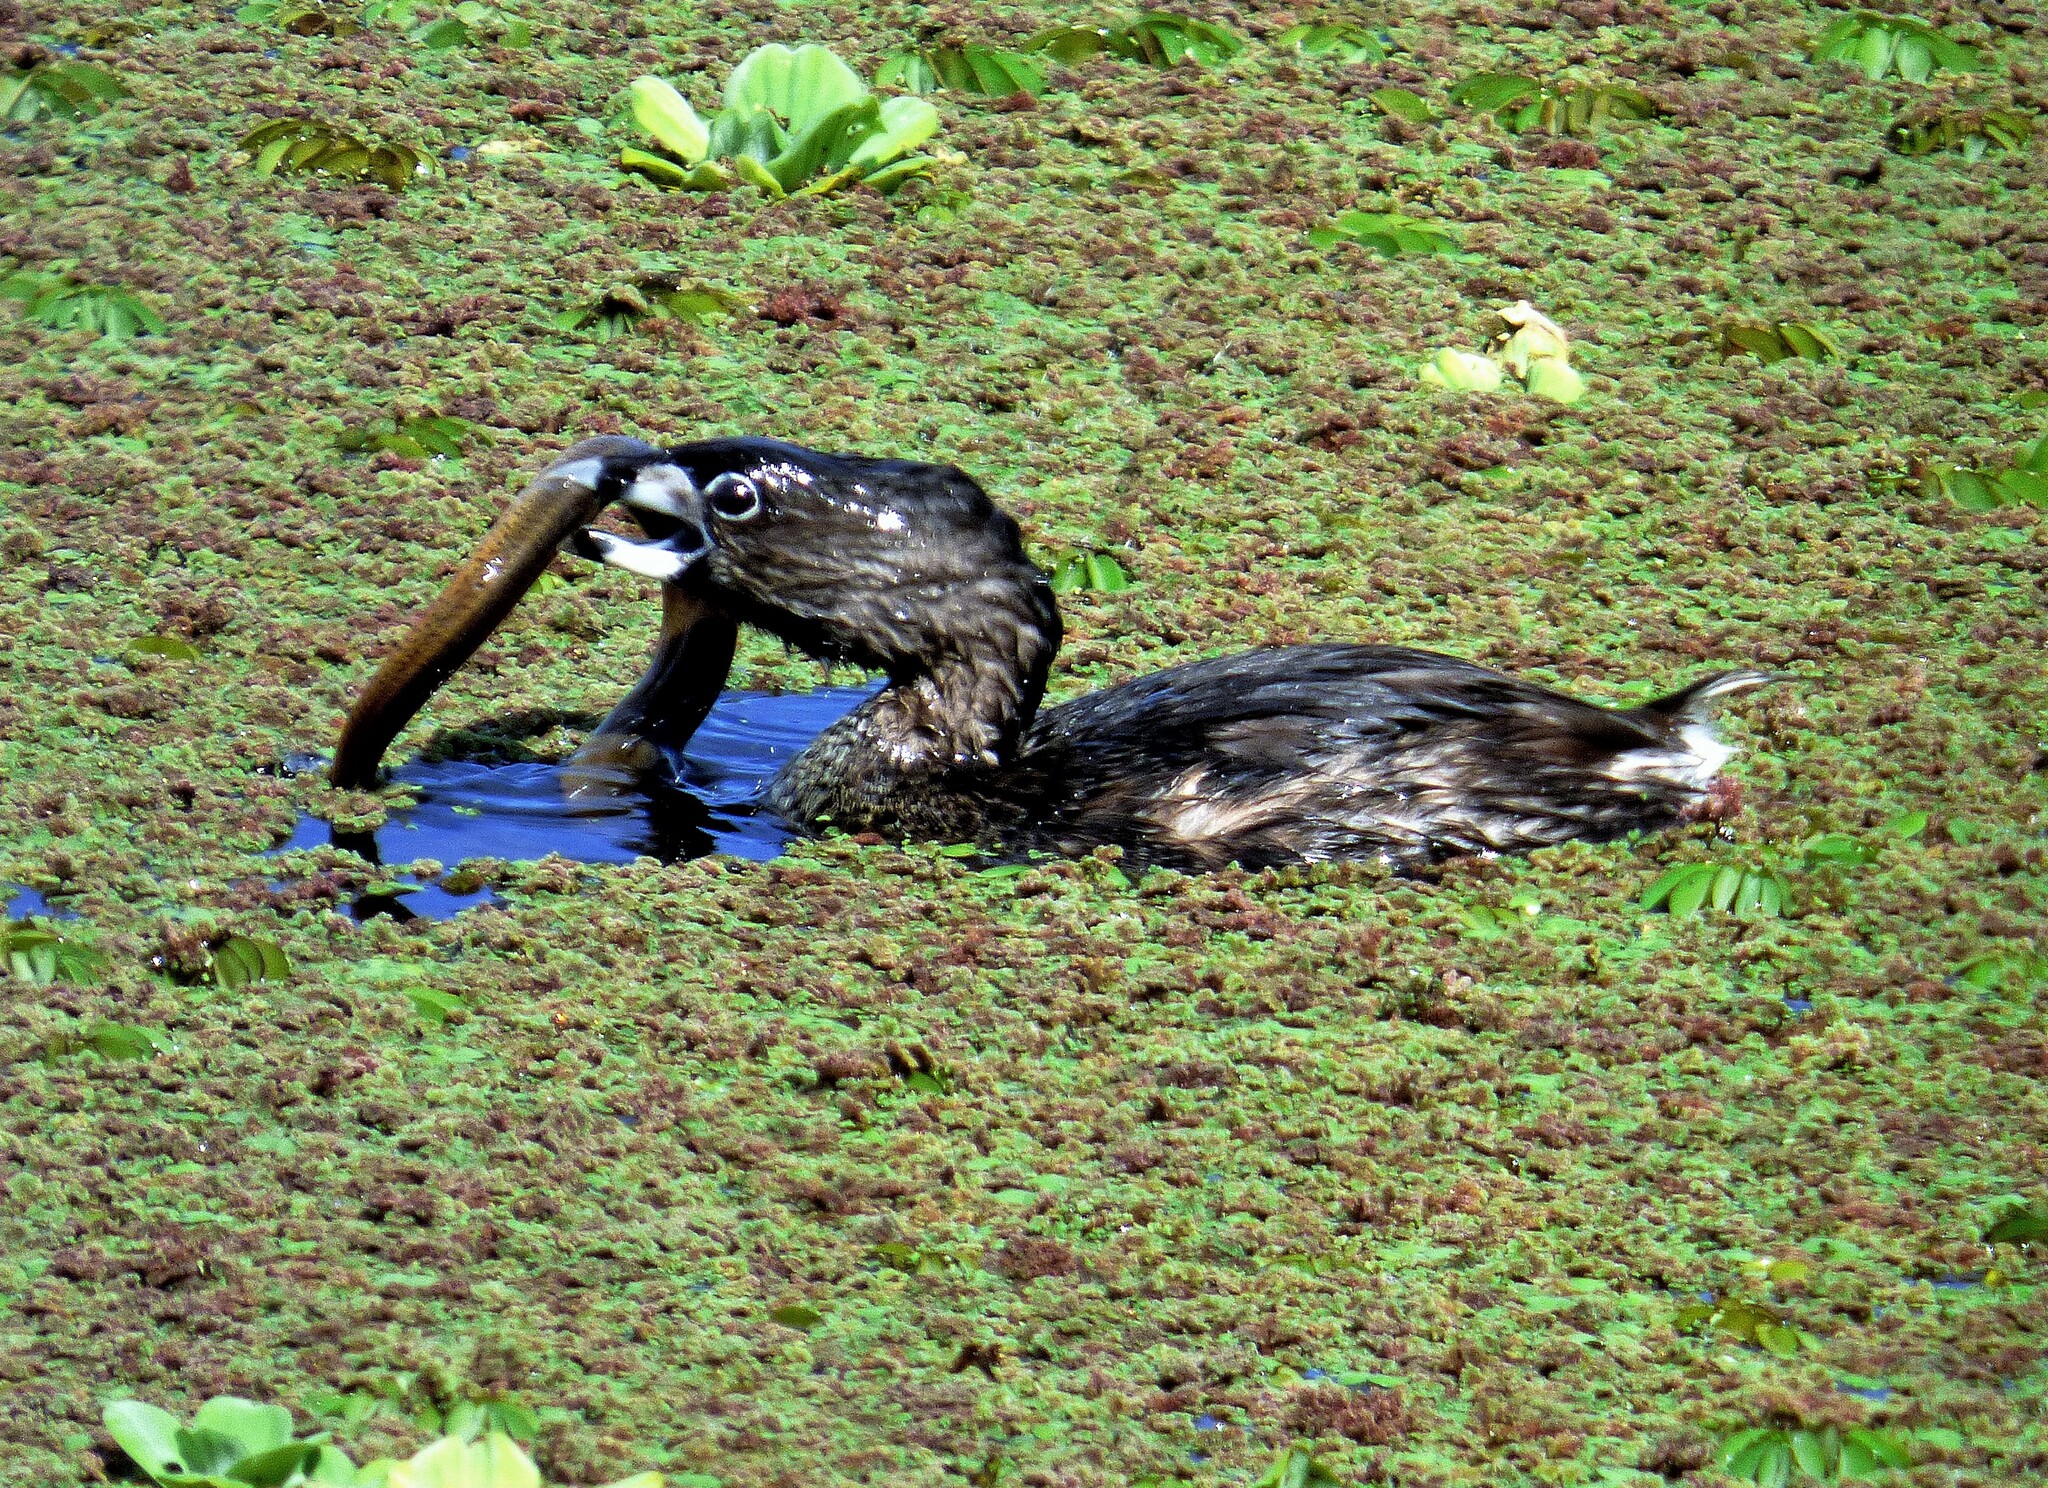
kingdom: Animalia
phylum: Chordata
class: Aves
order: Podicipediformes
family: Podicipedidae
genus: Podilymbus
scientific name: Podilymbus podiceps
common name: Pied-billed grebe
